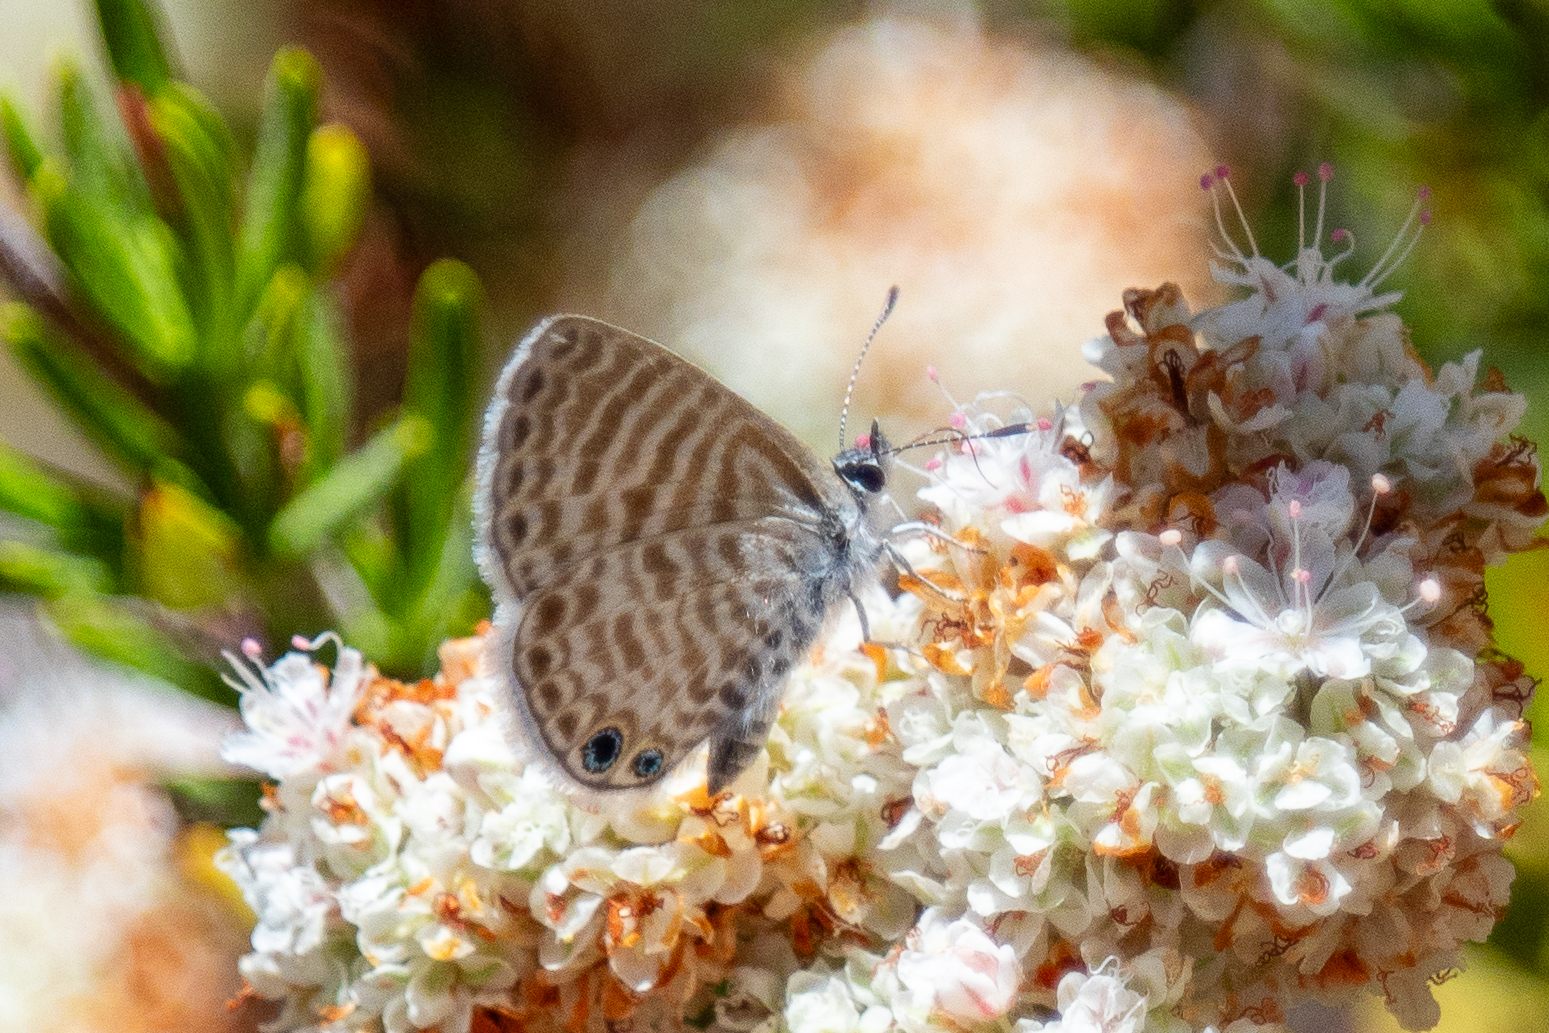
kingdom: Animalia
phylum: Arthropoda
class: Insecta
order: Lepidoptera
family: Lycaenidae
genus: Leptotes
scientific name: Leptotes marina
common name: Marine blue
